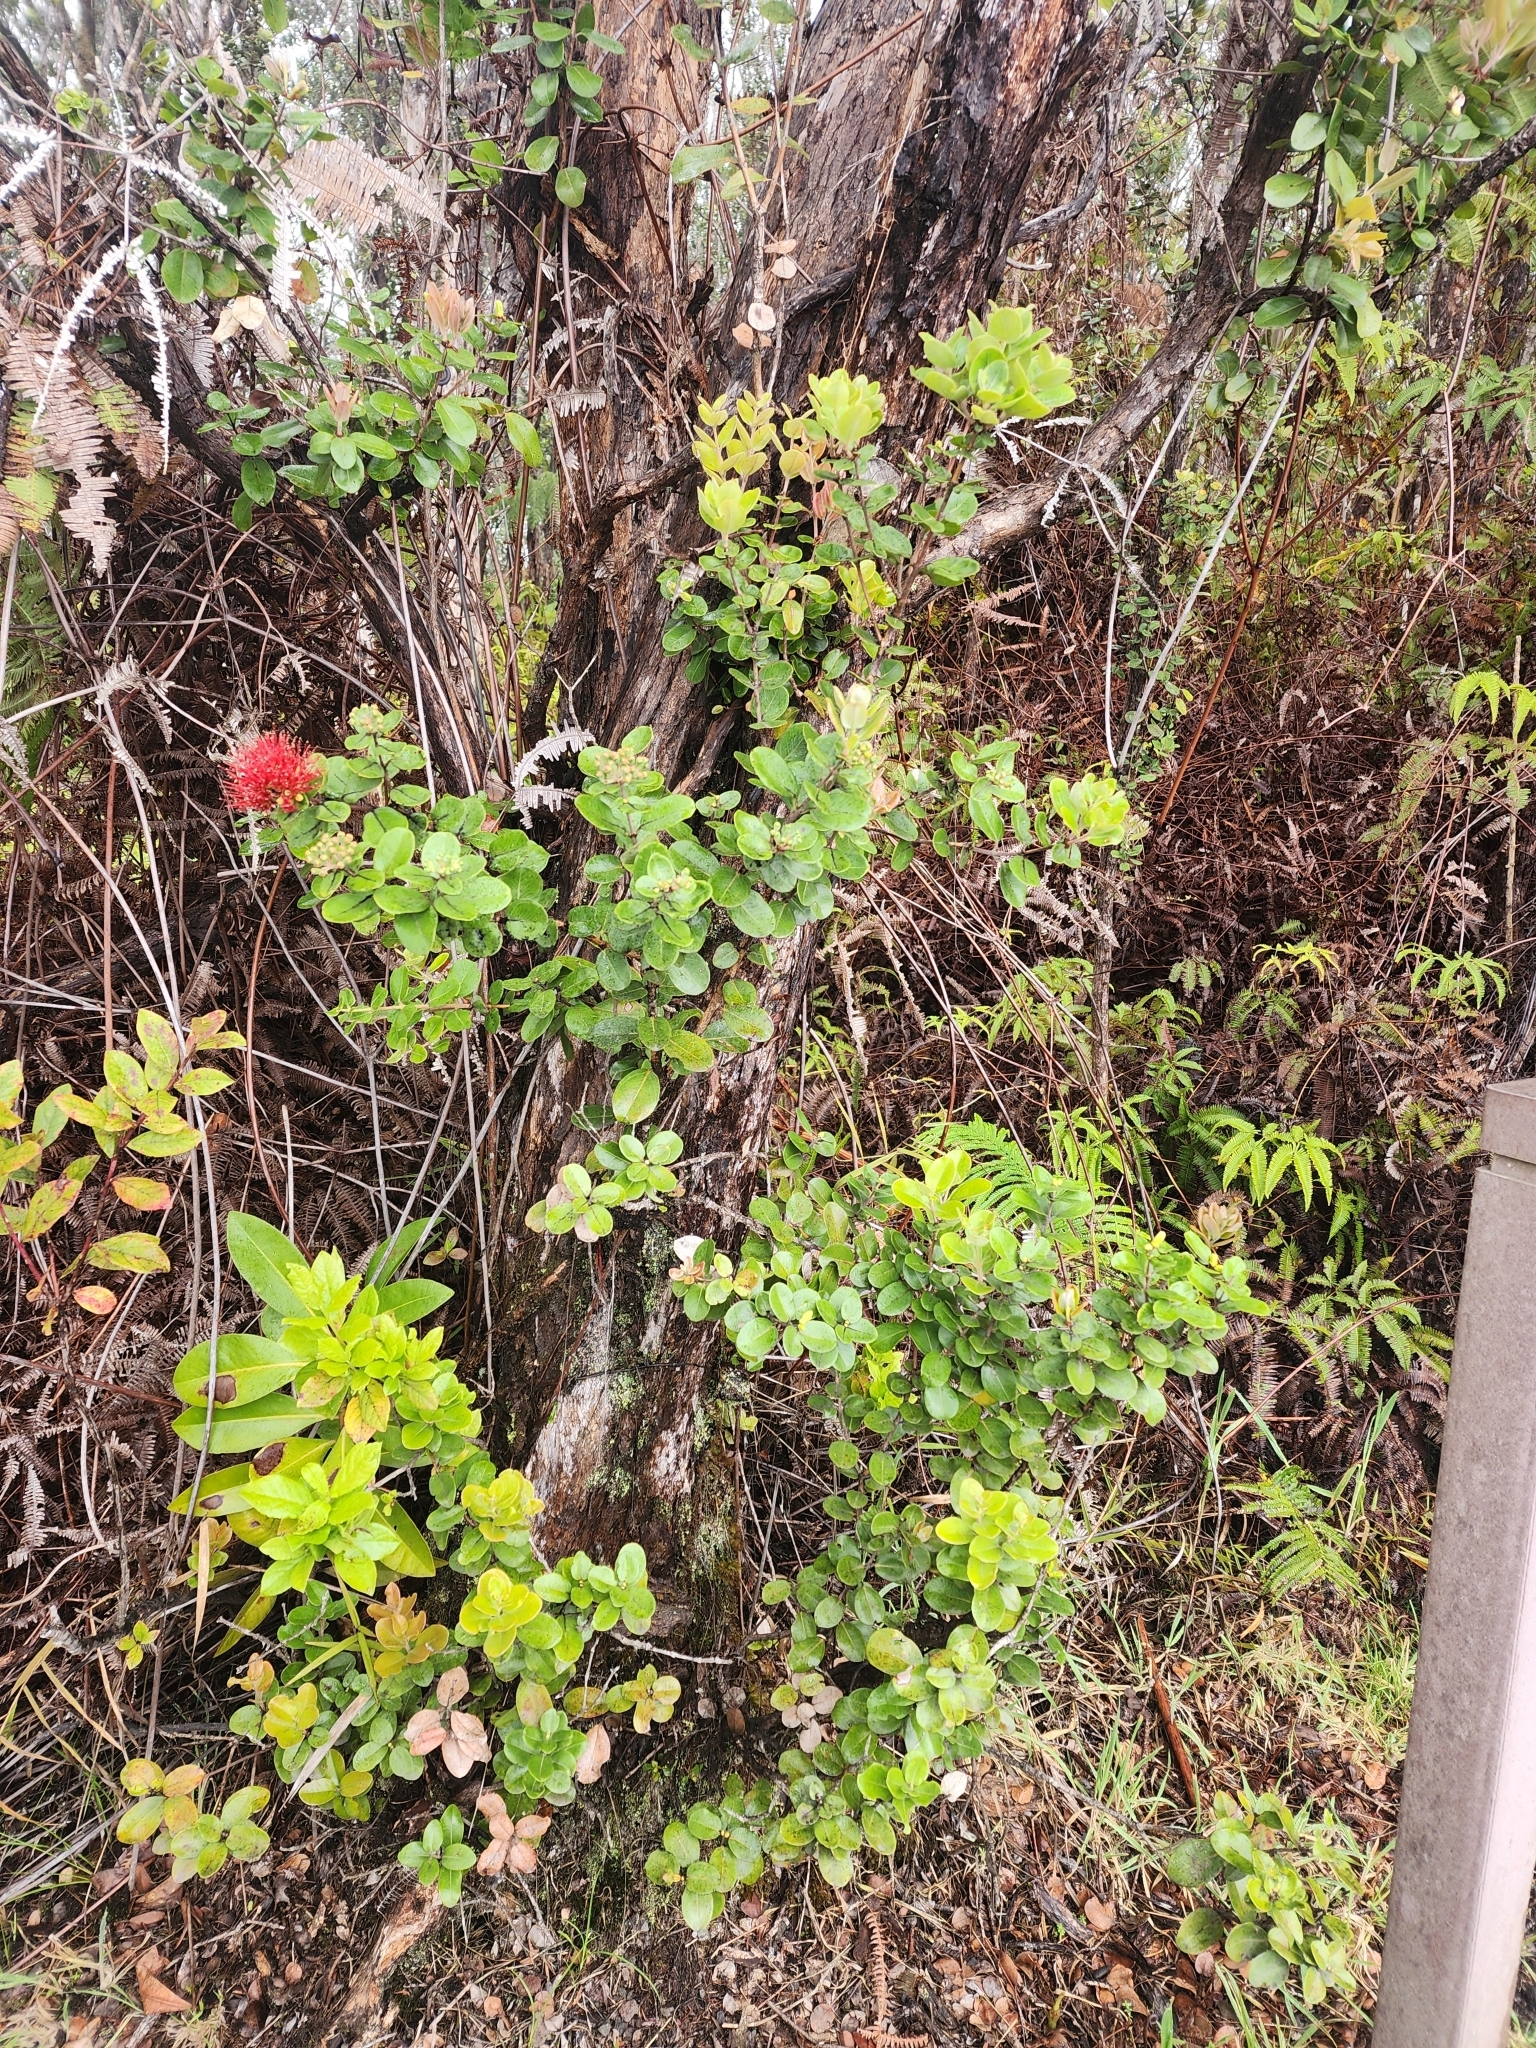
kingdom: Plantae
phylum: Tracheophyta
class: Magnoliopsida
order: Myrtales
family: Myrtaceae
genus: Metrosideros
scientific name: Metrosideros polymorpha
